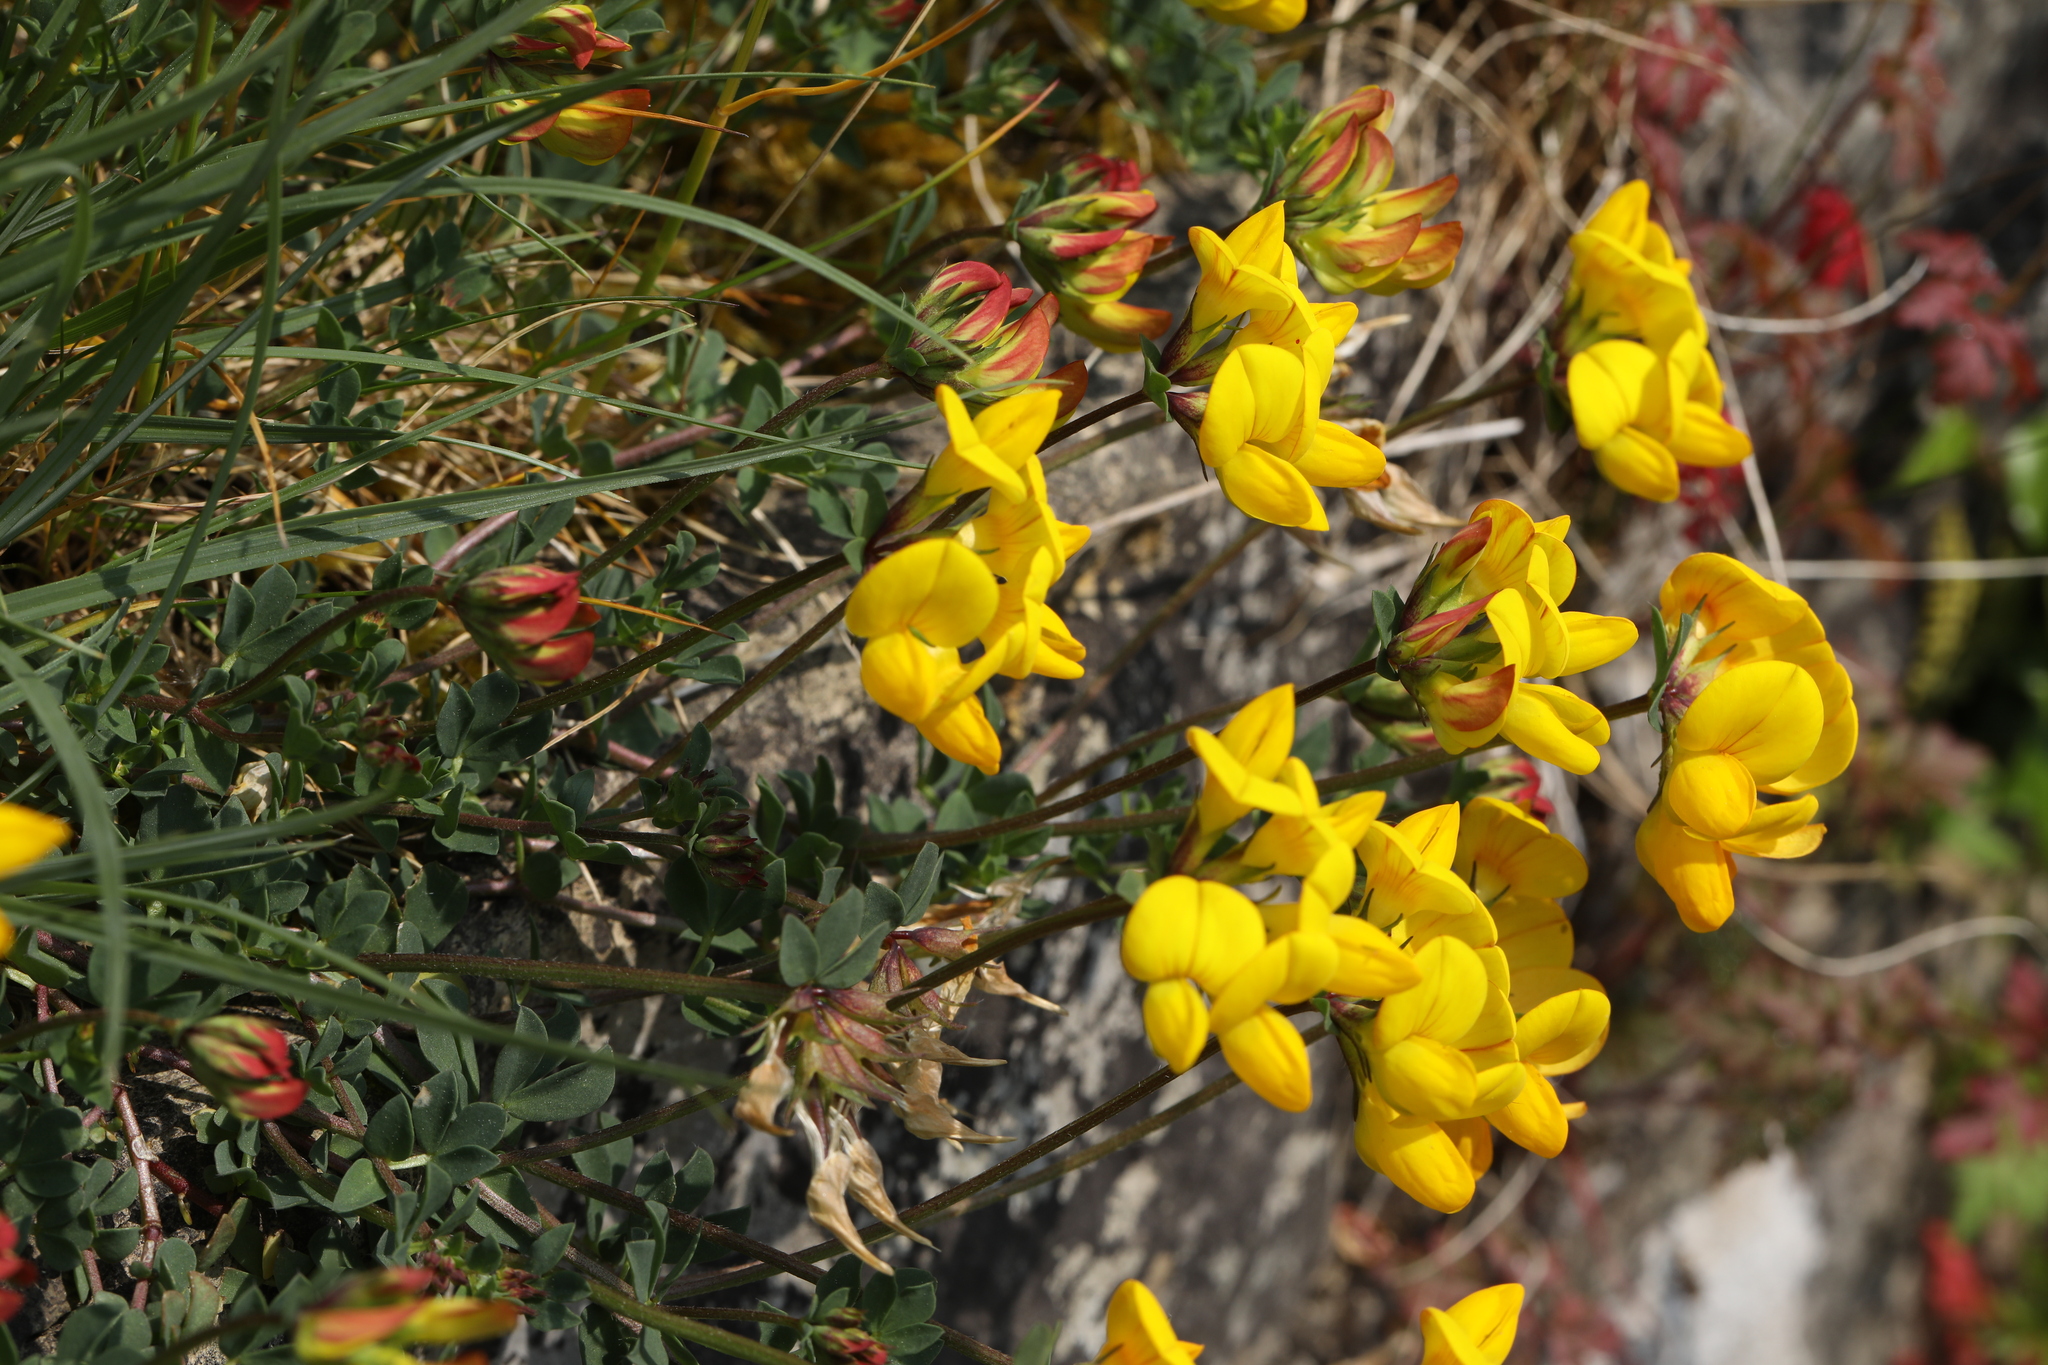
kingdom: Plantae
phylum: Tracheophyta
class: Magnoliopsida
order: Fabales
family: Fabaceae
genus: Lotus
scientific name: Lotus corniculatus
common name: Common bird's-foot-trefoil
